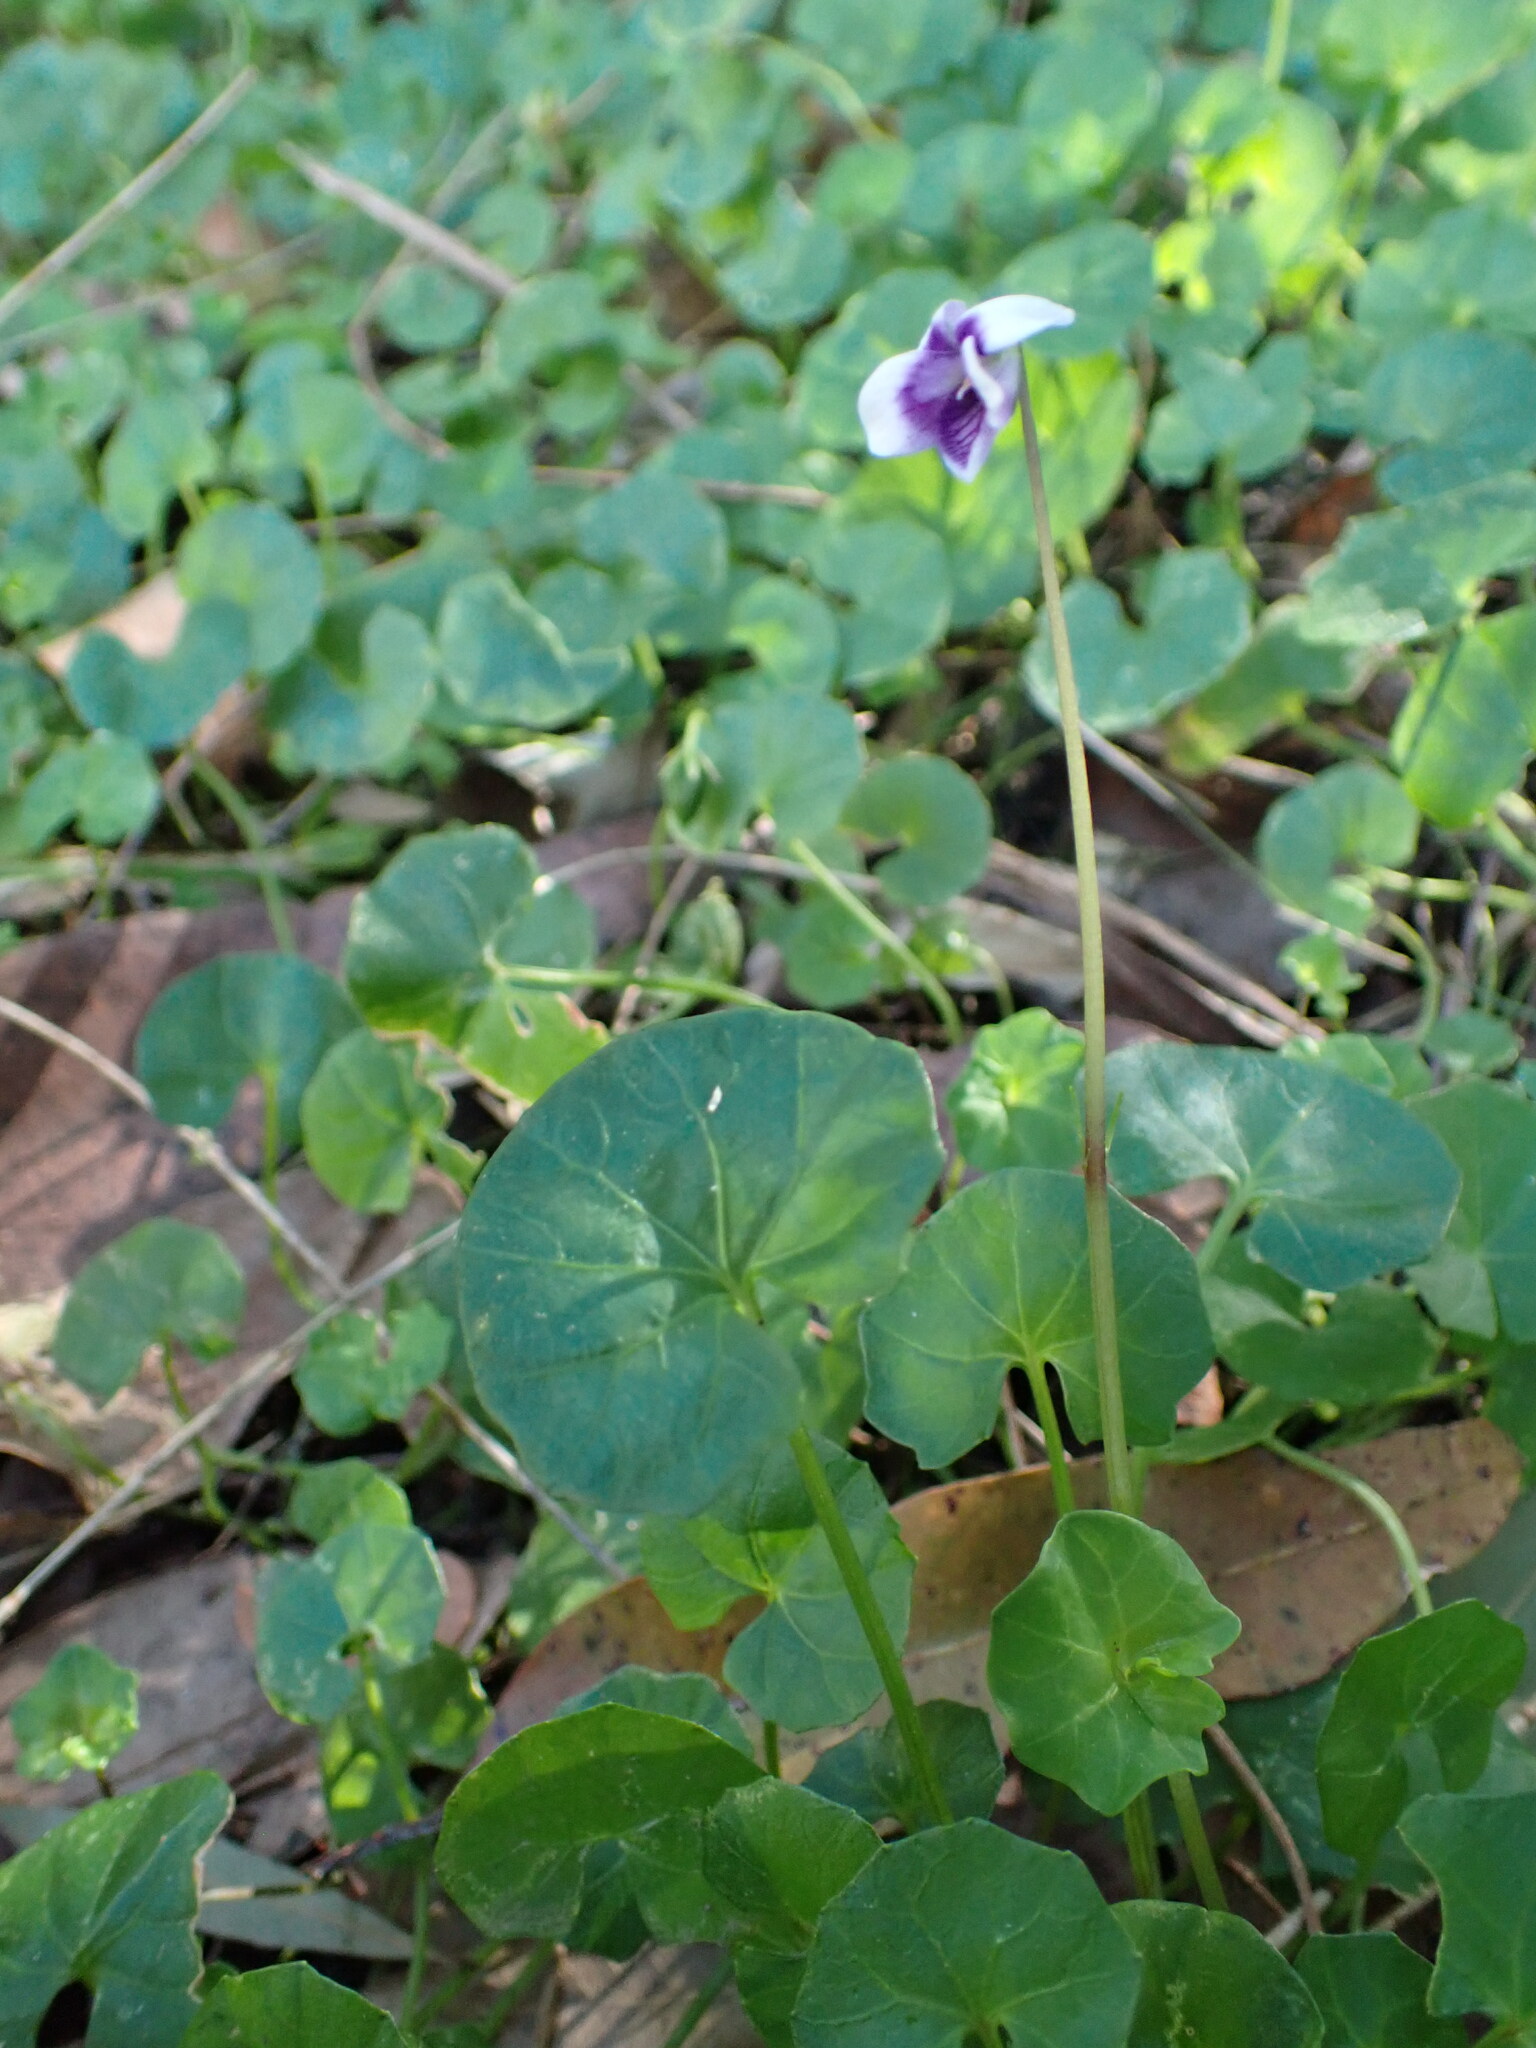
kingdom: Plantae
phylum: Tracheophyta
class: Magnoliopsida
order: Malpighiales
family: Violaceae
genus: Viola
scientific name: Viola banksii
